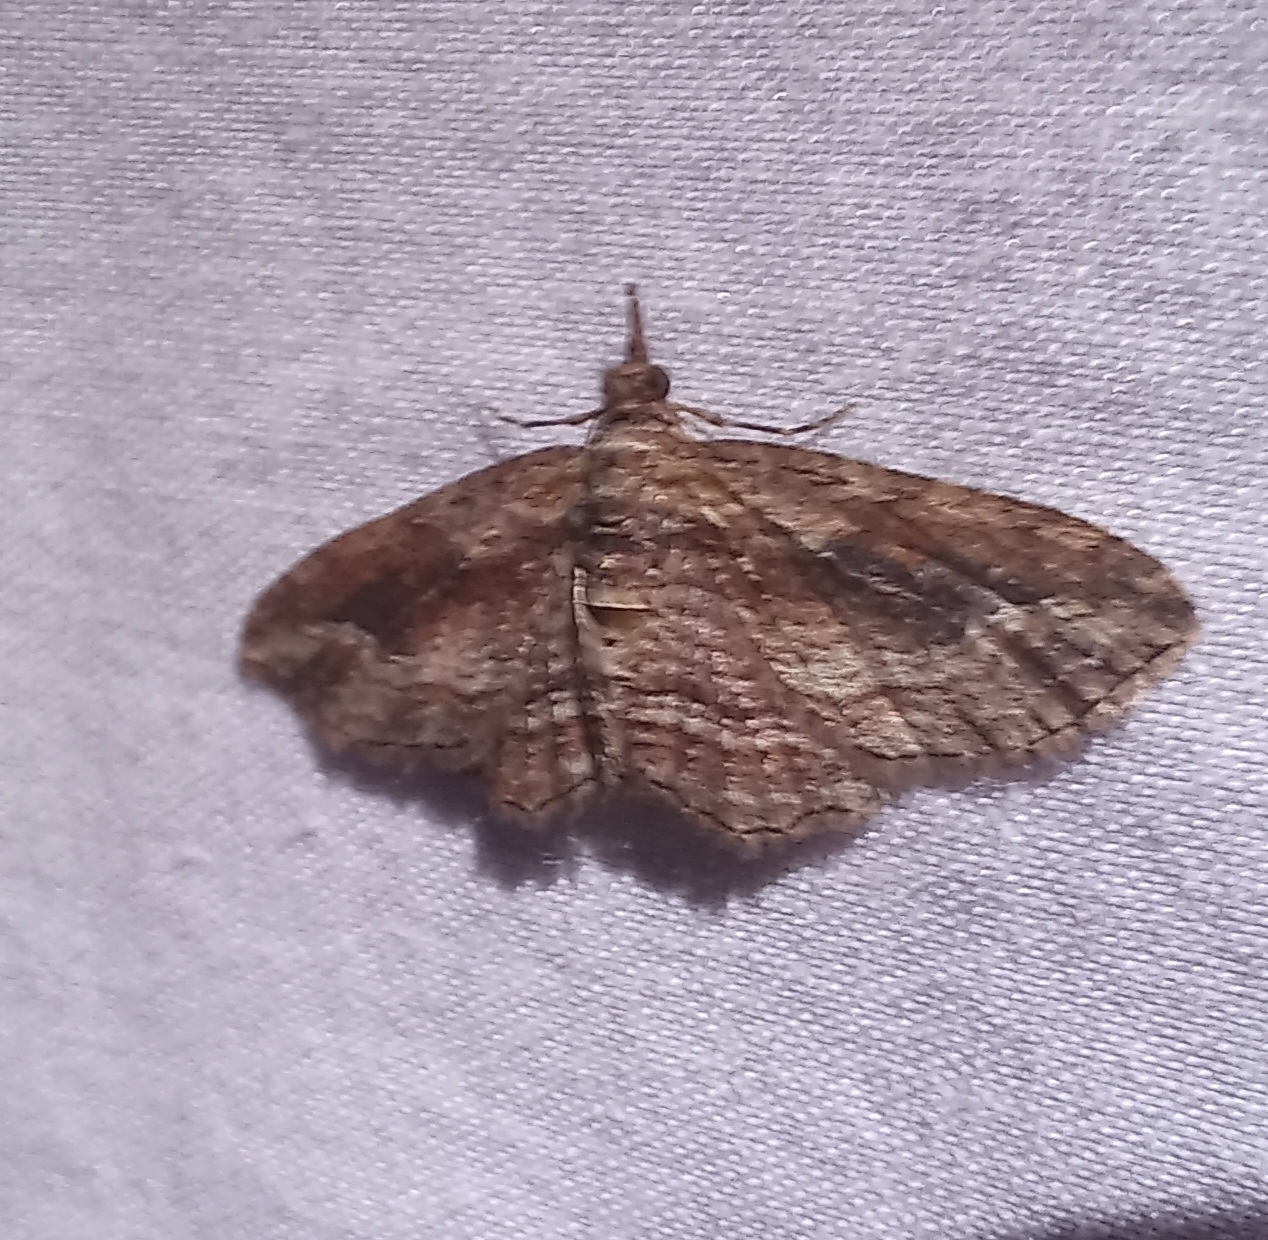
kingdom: Animalia
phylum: Arthropoda
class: Insecta
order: Lepidoptera
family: Geometridae
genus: Chloroclystis
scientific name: Chloroclystis filata
